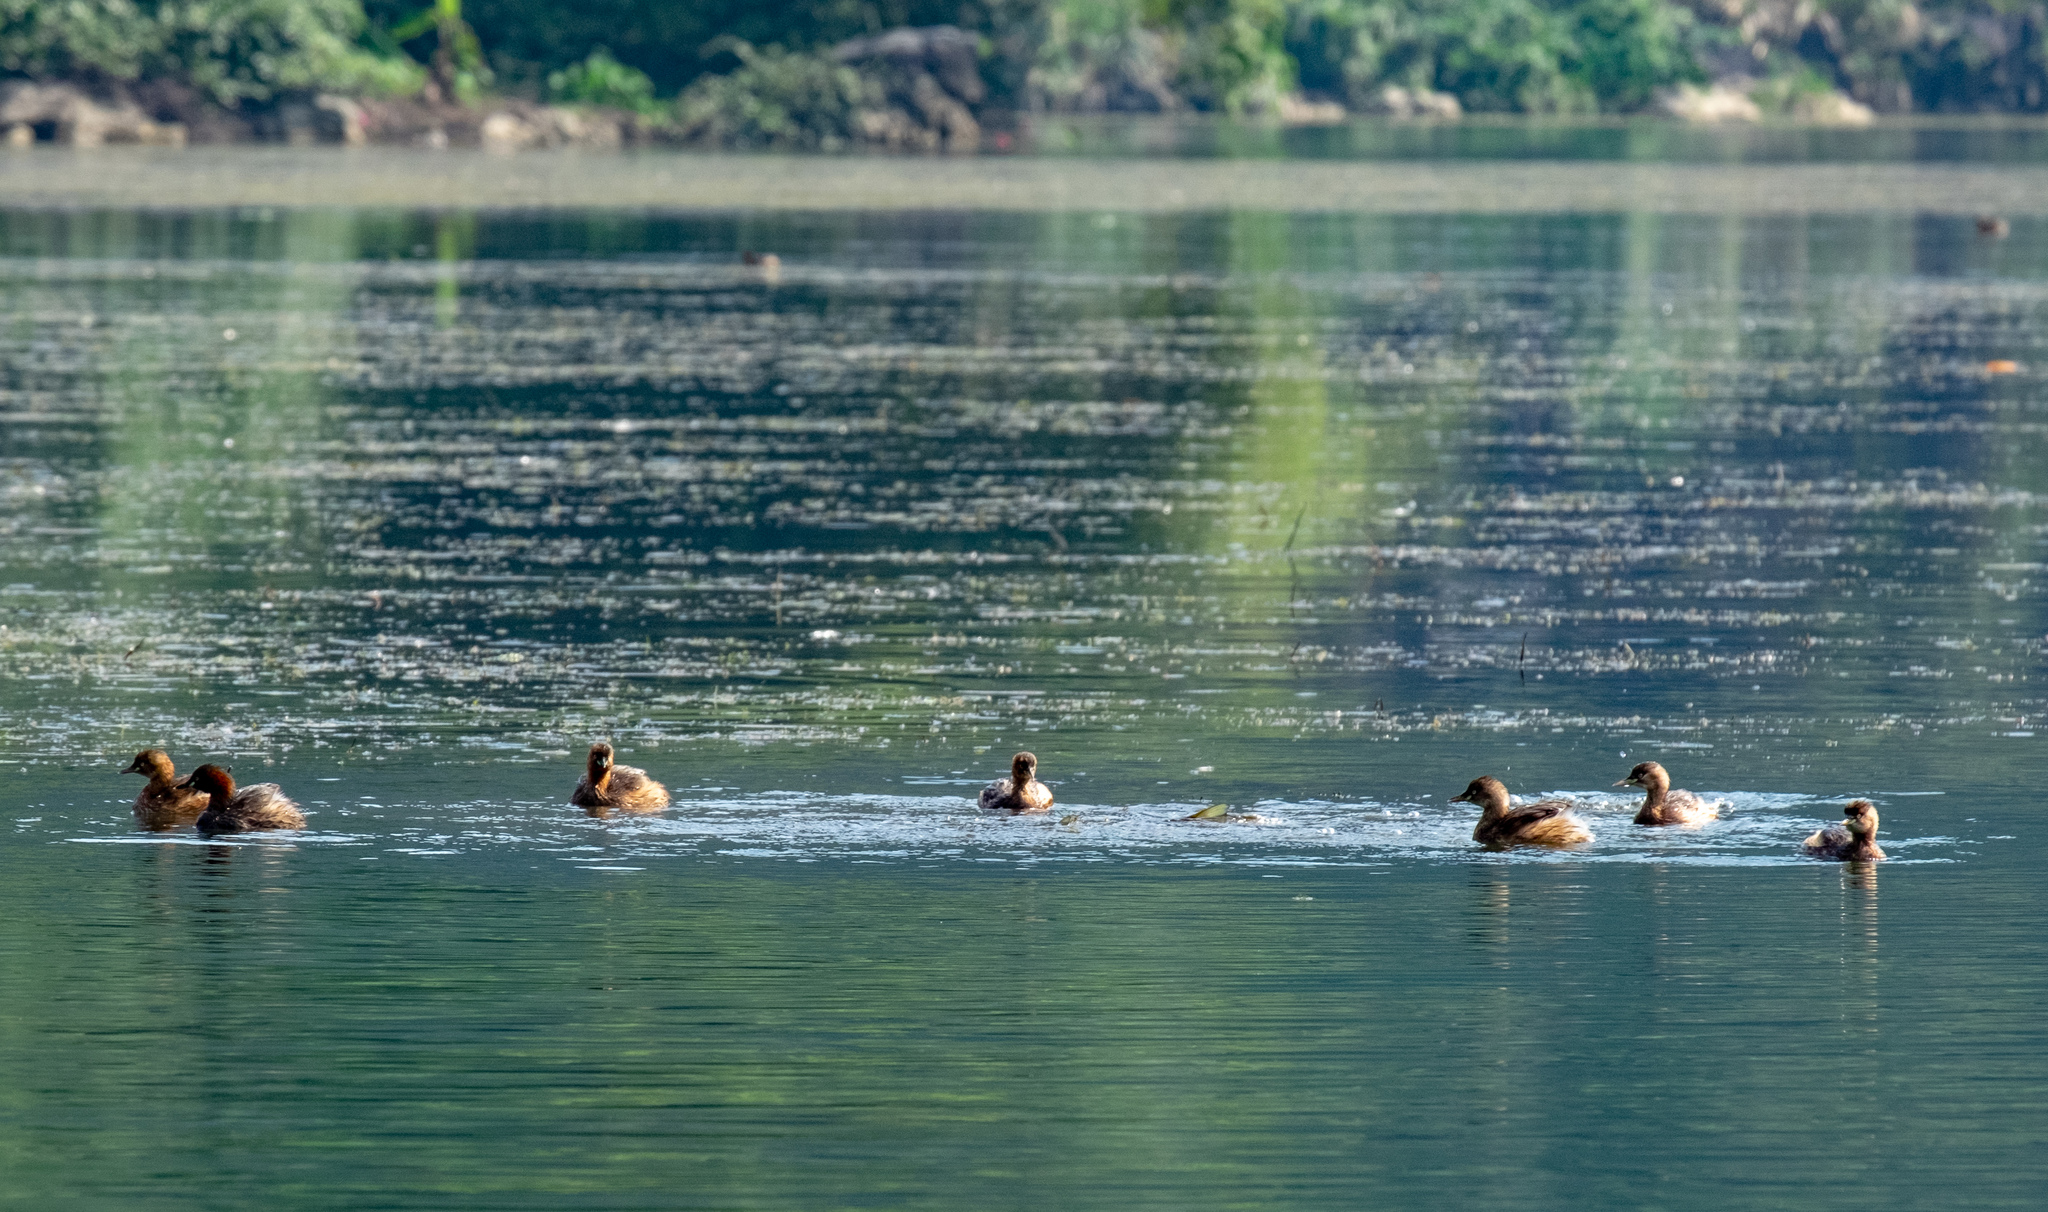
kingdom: Animalia
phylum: Chordata
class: Aves
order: Podicipediformes
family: Podicipedidae
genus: Tachybaptus
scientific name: Tachybaptus ruficollis
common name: Little grebe
